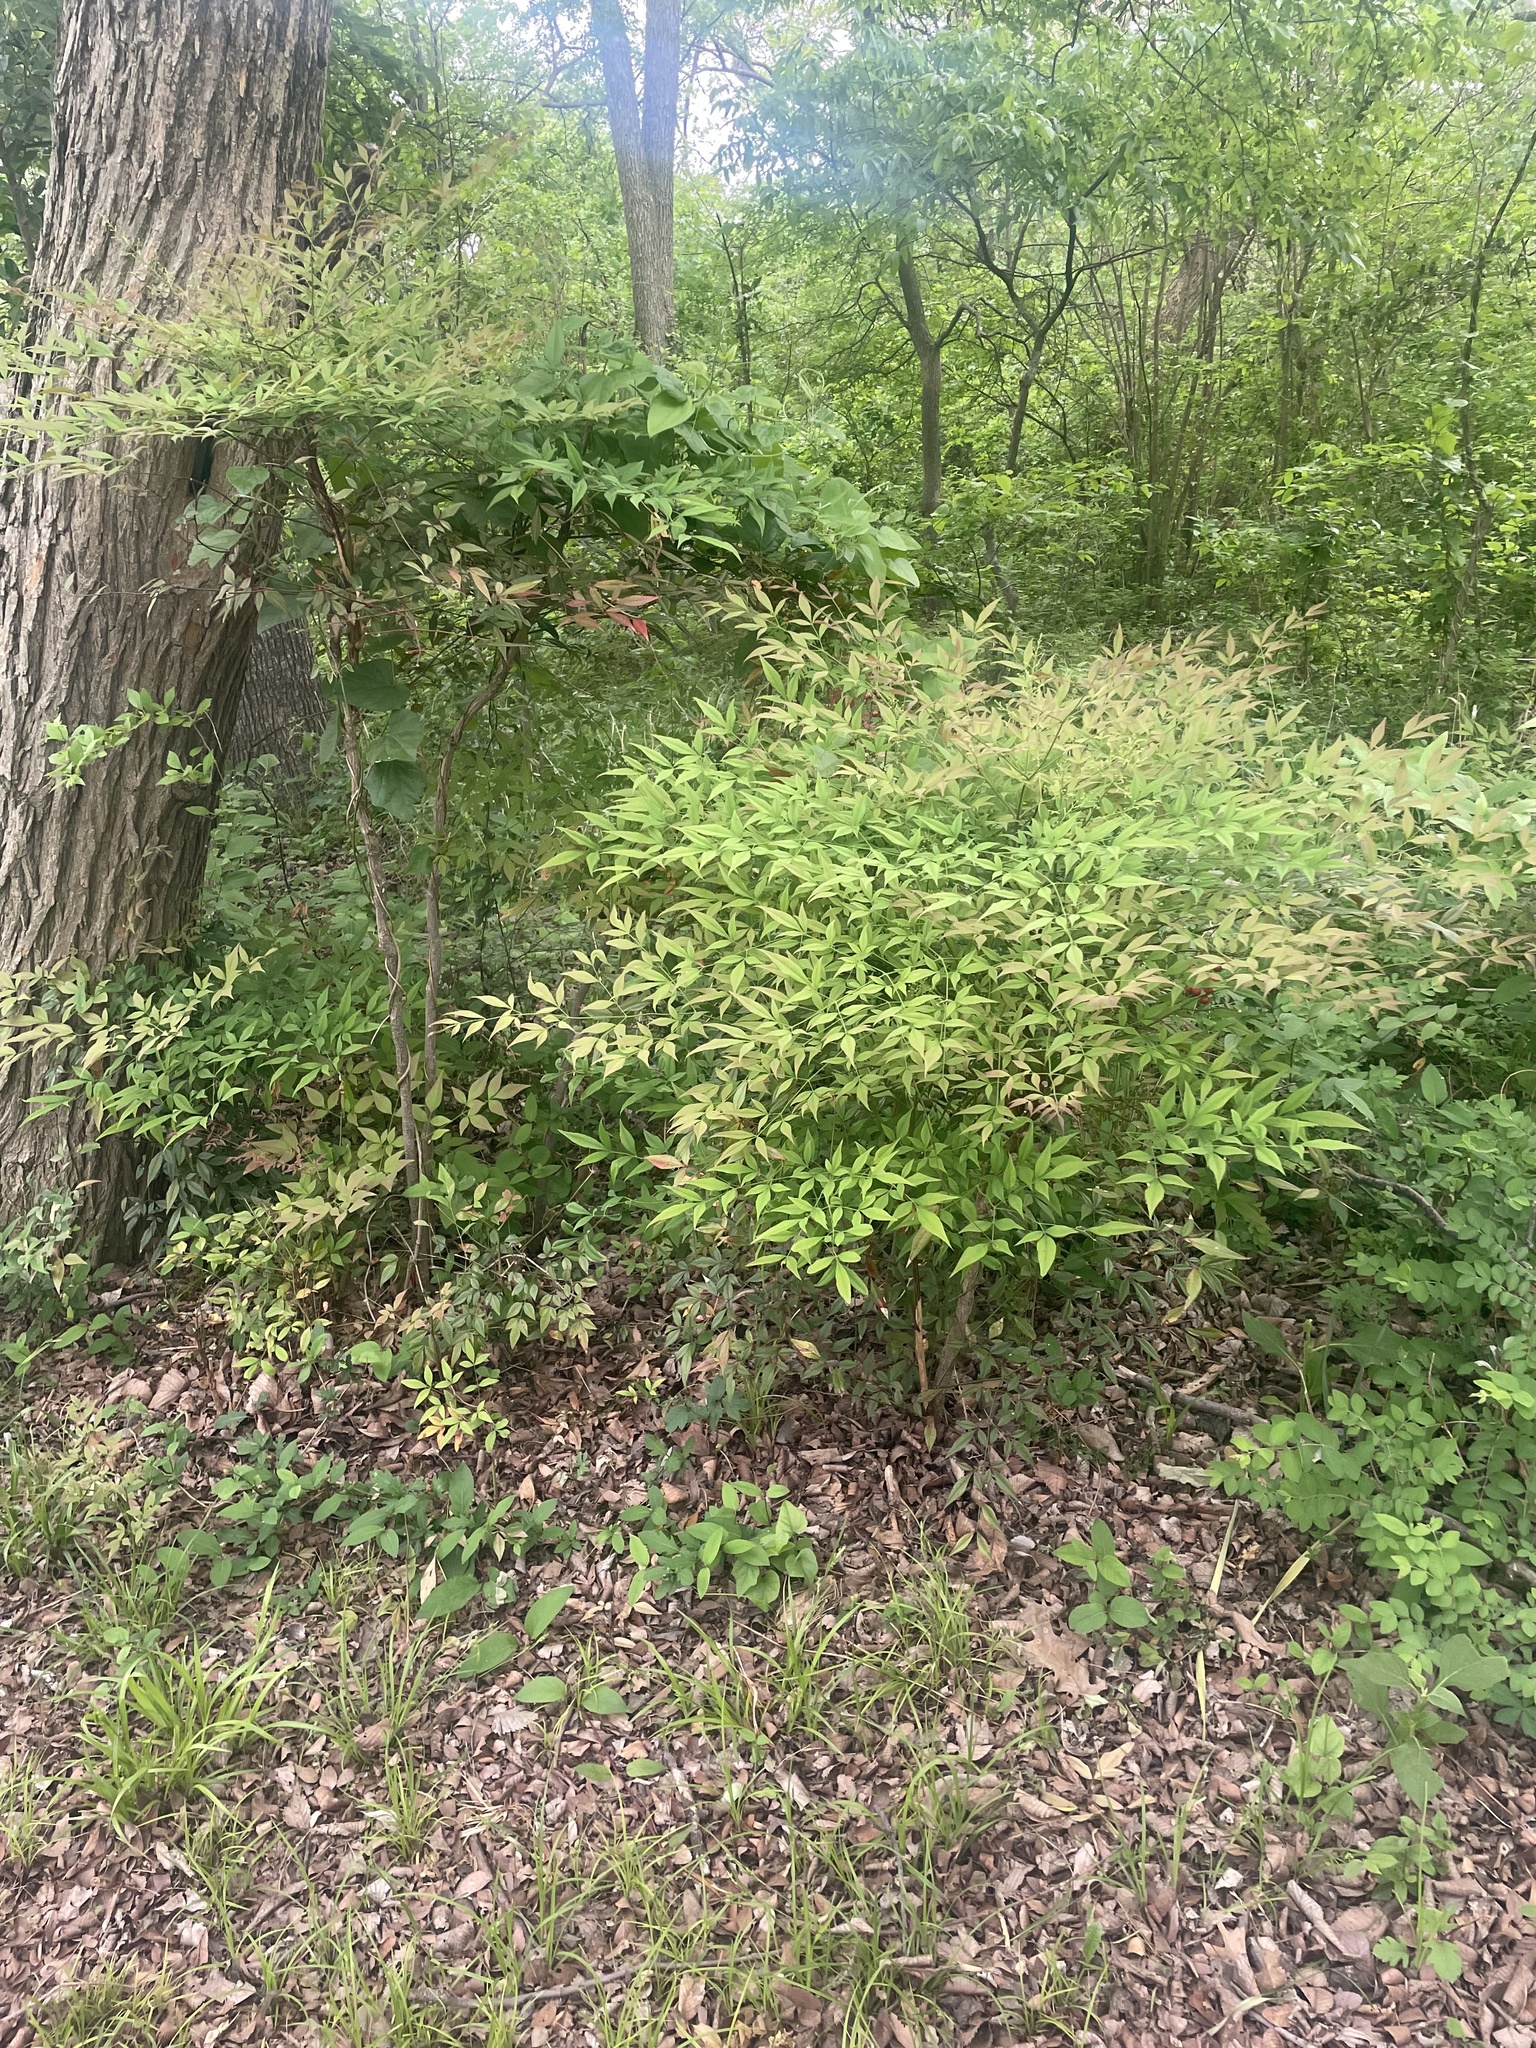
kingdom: Plantae
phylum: Tracheophyta
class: Magnoliopsida
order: Ranunculales
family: Berberidaceae
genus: Nandina
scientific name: Nandina domestica
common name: Sacred bamboo
